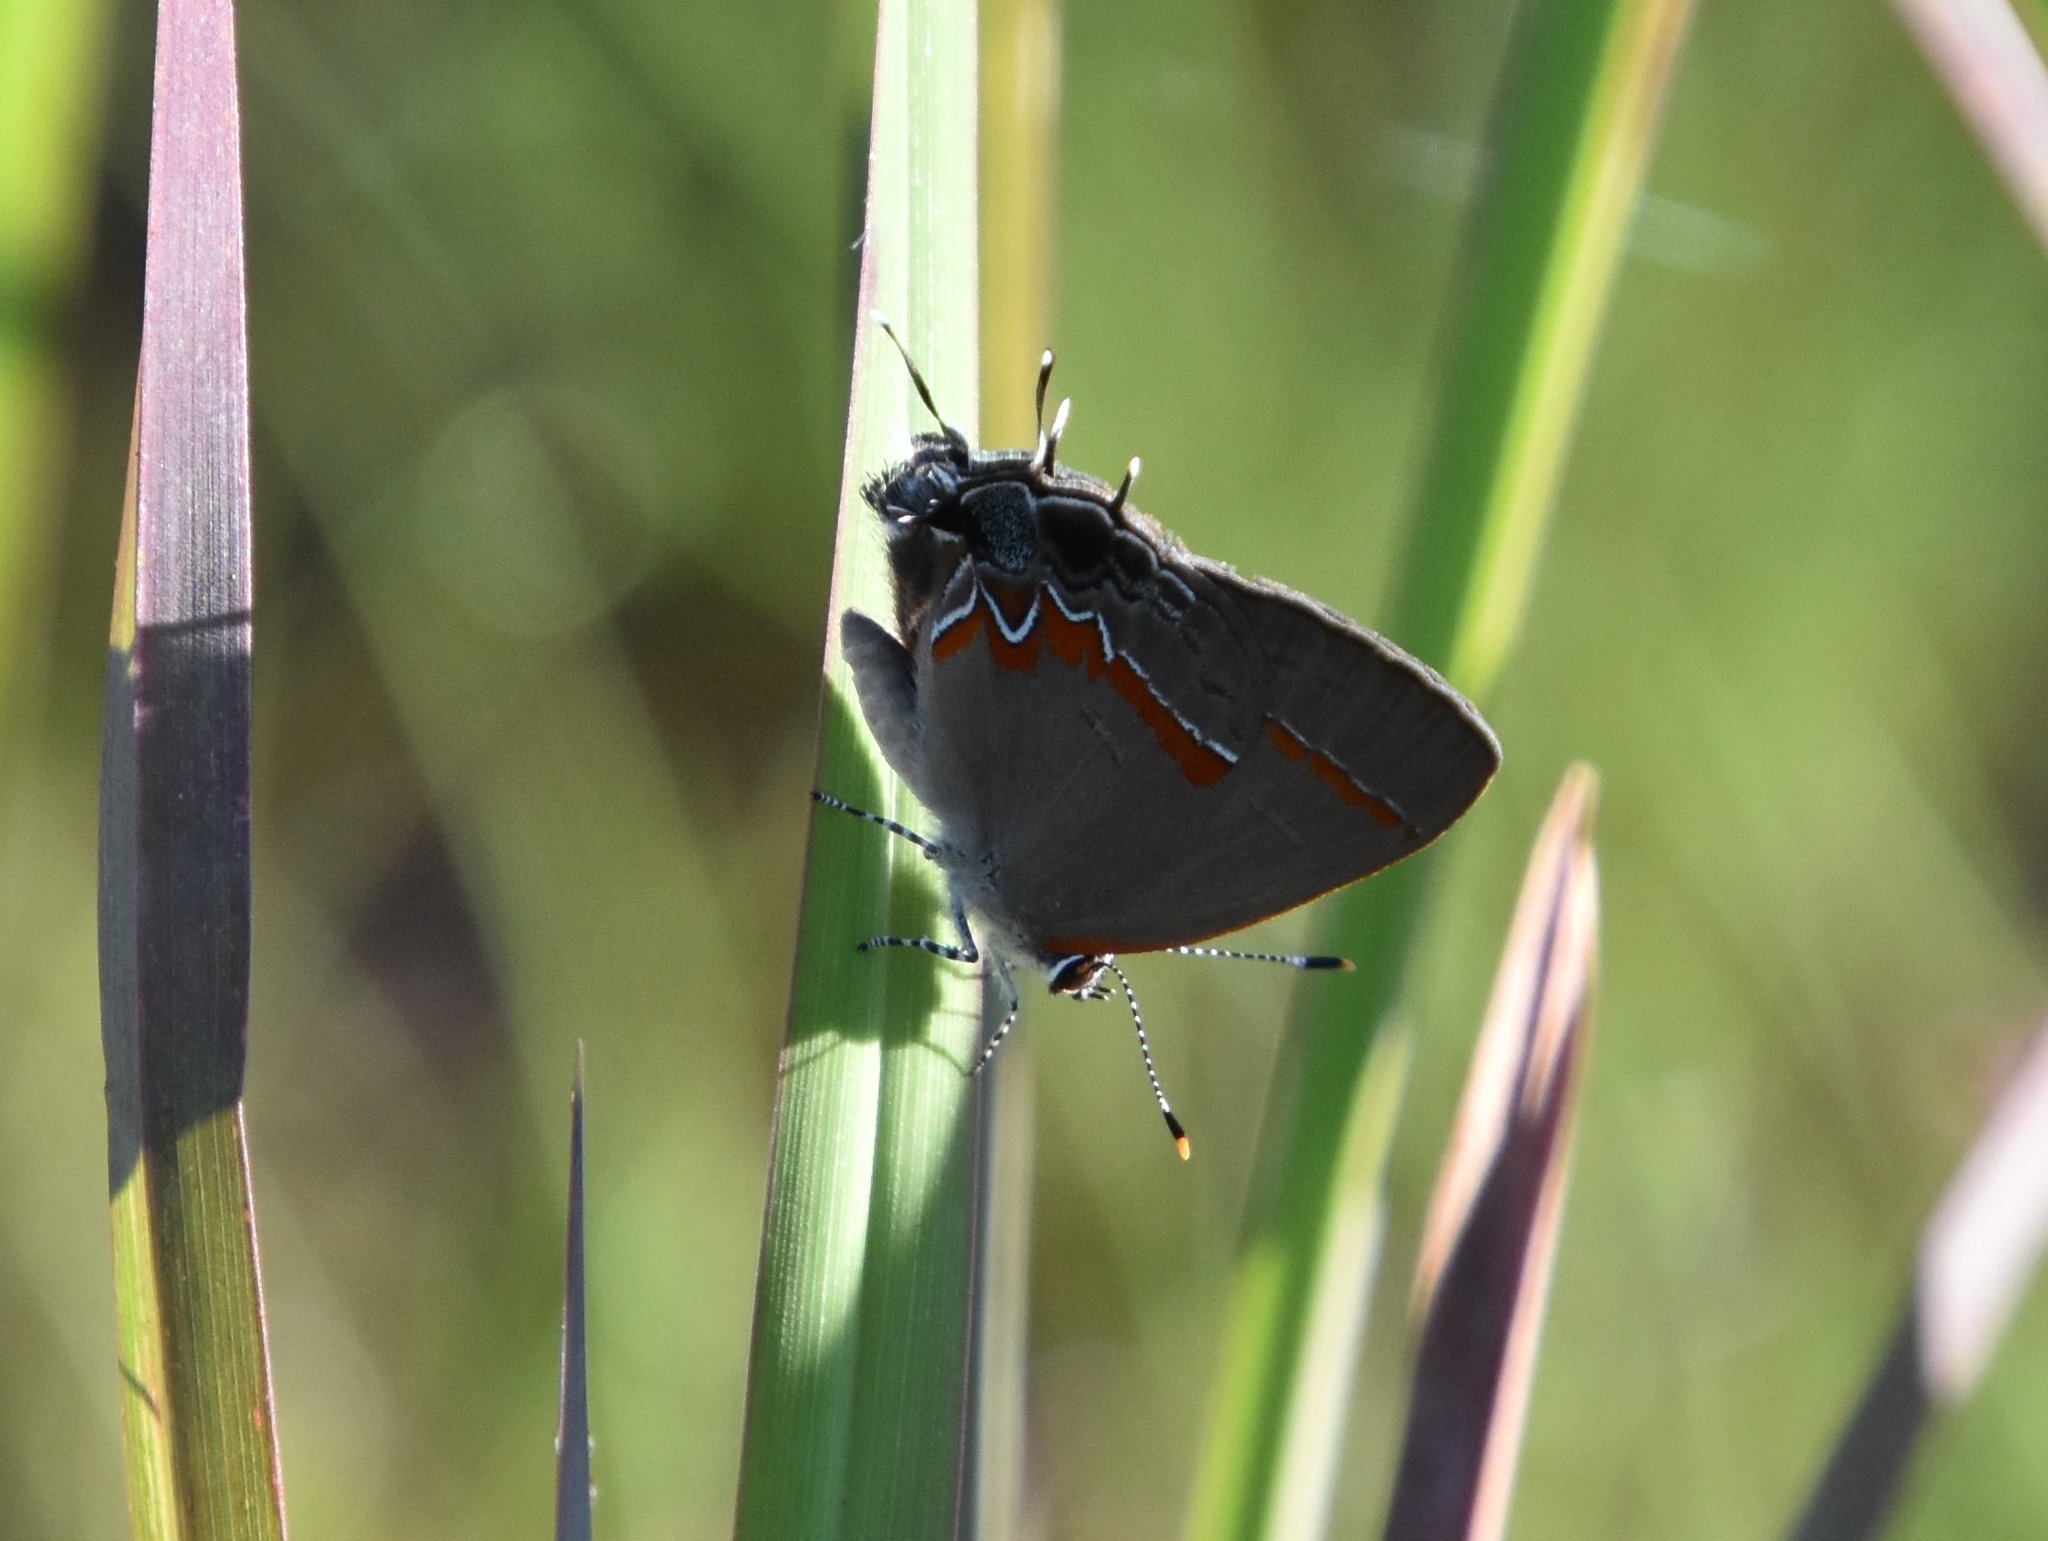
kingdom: Animalia
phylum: Arthropoda
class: Insecta
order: Lepidoptera
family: Lycaenidae
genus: Calycopis
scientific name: Calycopis cecrops
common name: Red-banded hairstreak
